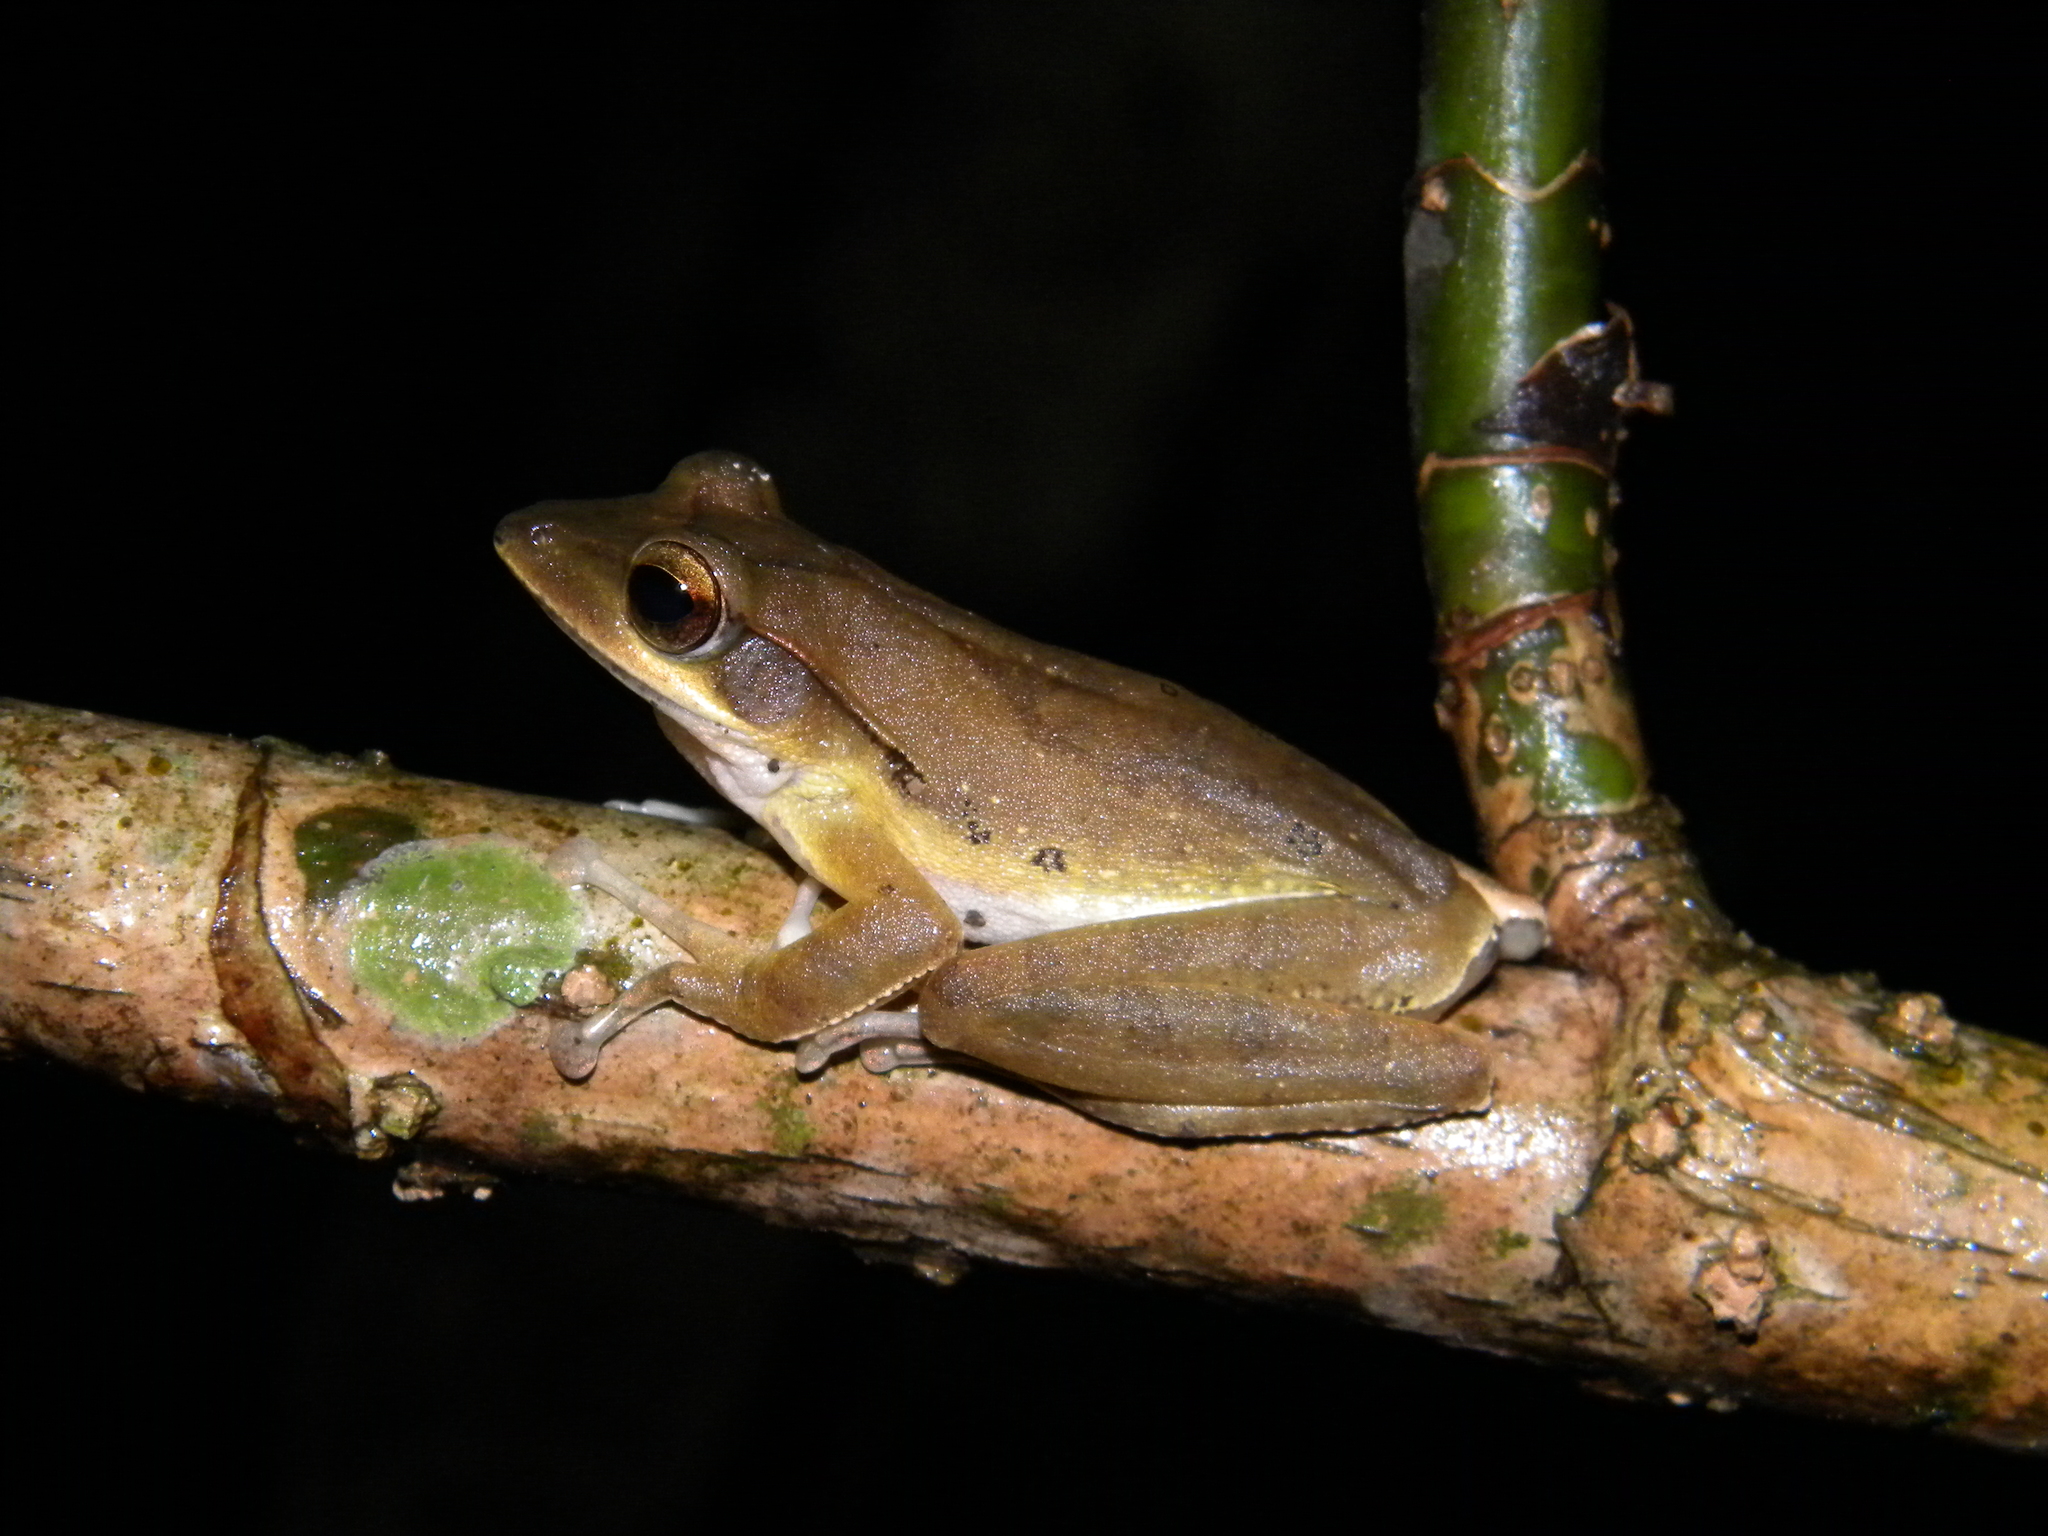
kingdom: Animalia
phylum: Chordata
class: Amphibia
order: Anura
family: Rhacophoridae
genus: Polypedates
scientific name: Polypedates occidentalis
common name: Charpa tree frog
